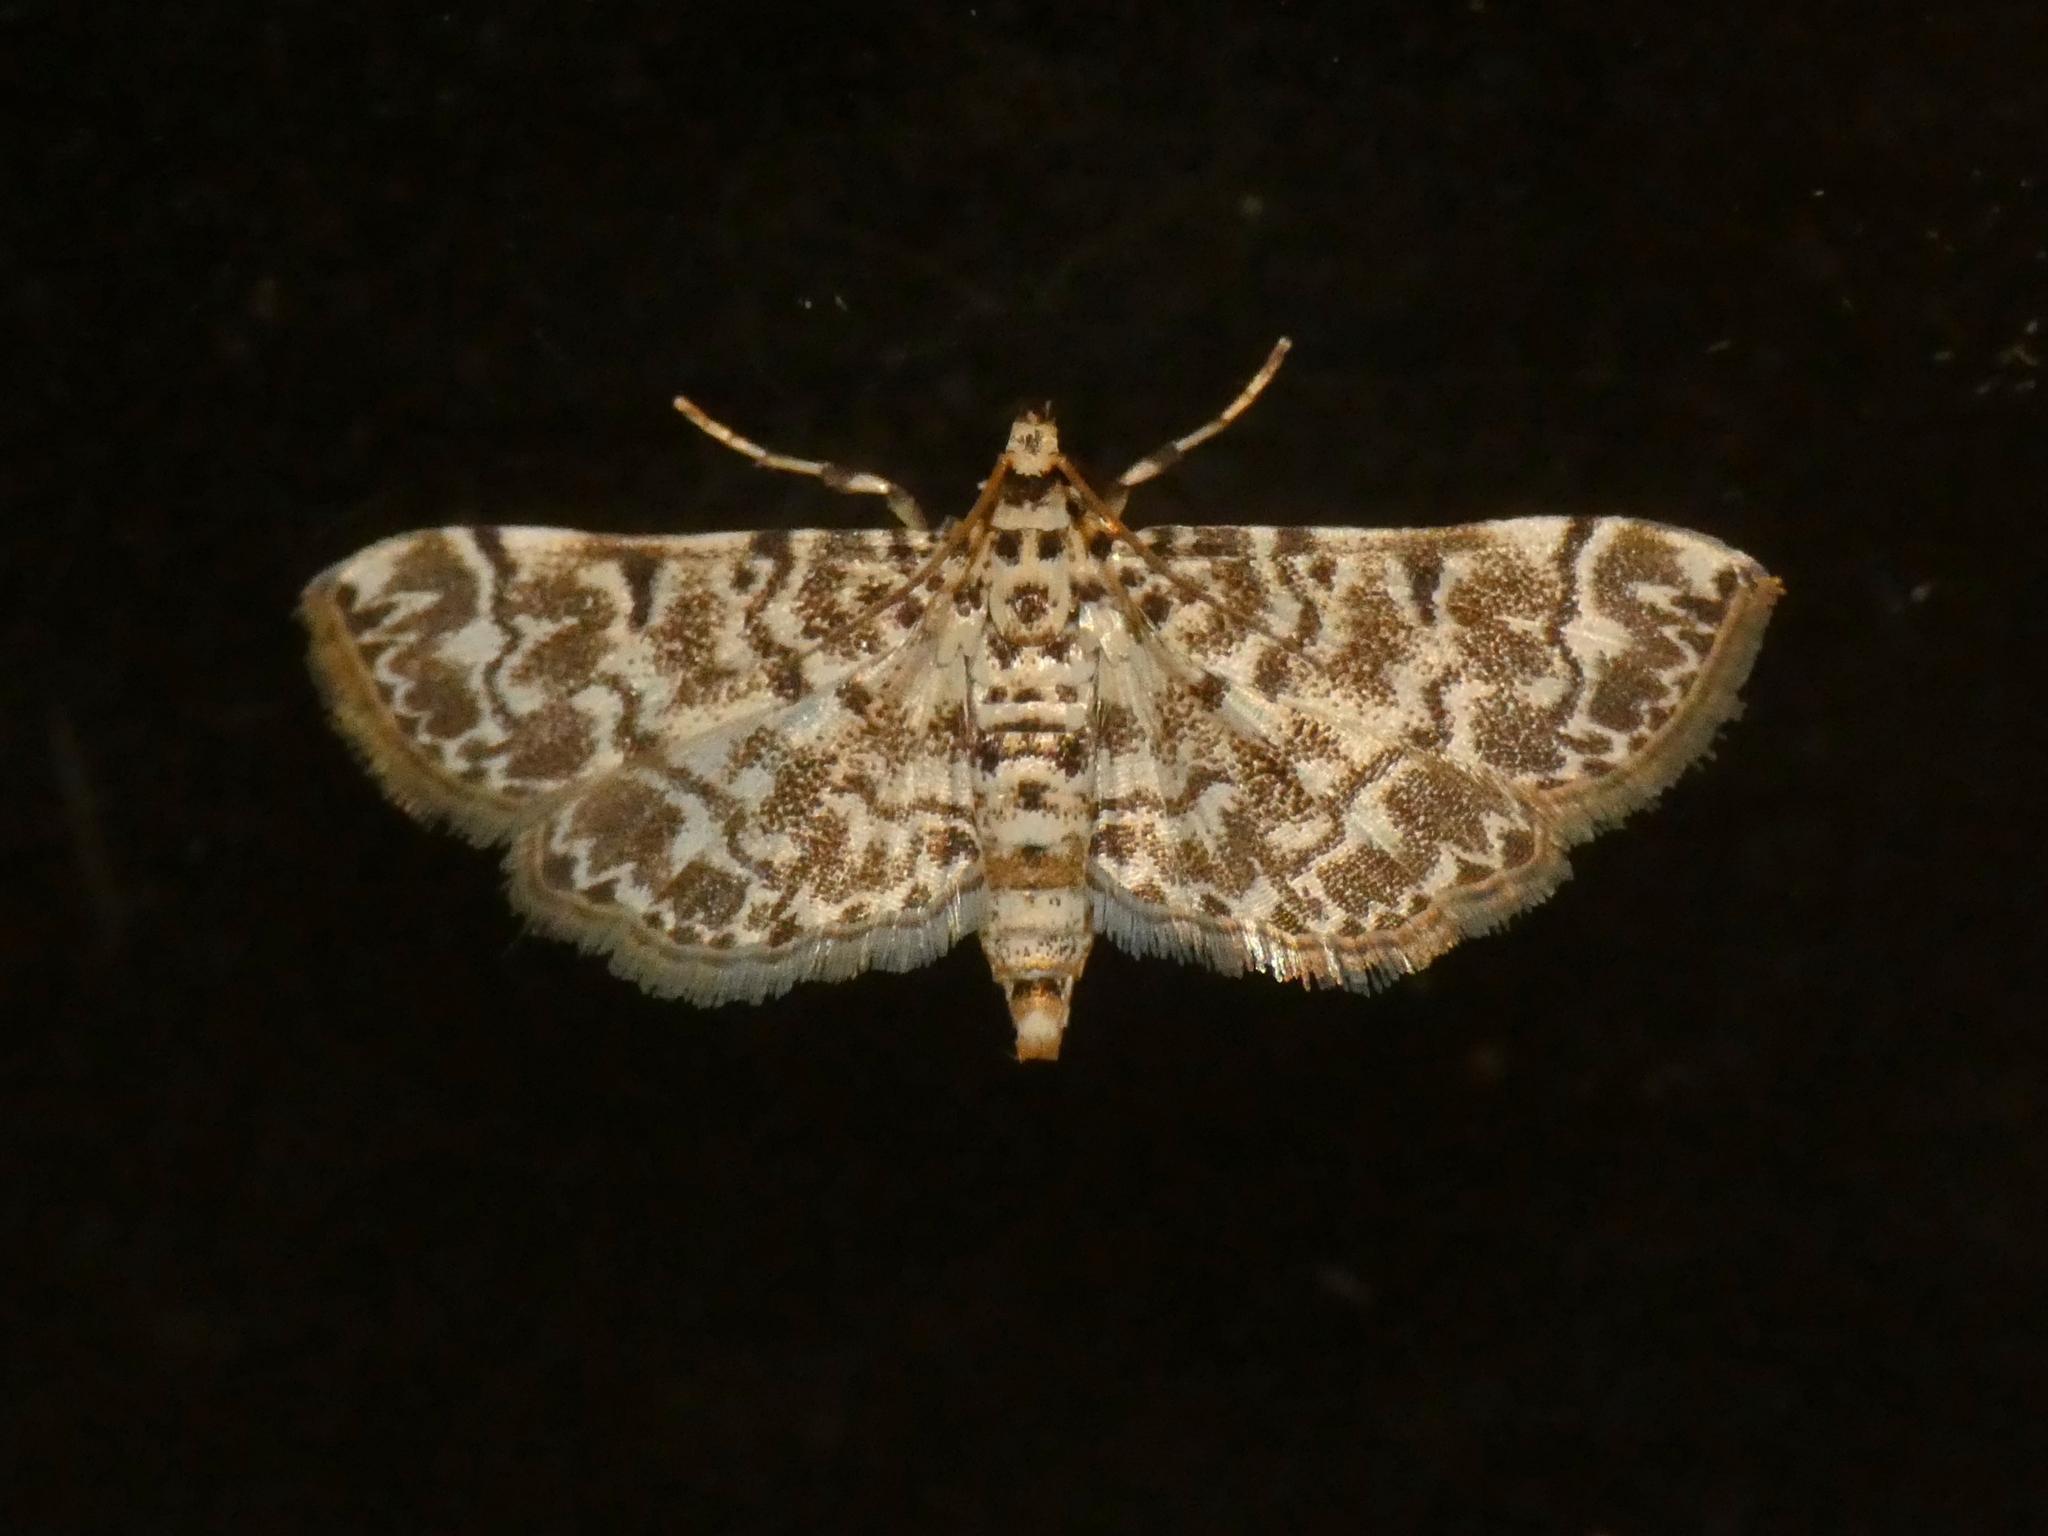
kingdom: Animalia
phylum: Arthropoda
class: Insecta
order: Lepidoptera
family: Crambidae
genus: Metoeca
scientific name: Metoeca foedalis
